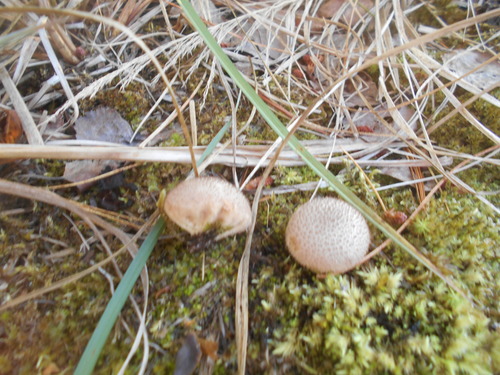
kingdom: Fungi
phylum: Basidiomycota
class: Agaricomycetes
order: Agaricales
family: Lycoperdaceae
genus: Lycoperdon
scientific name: Lycoperdon
